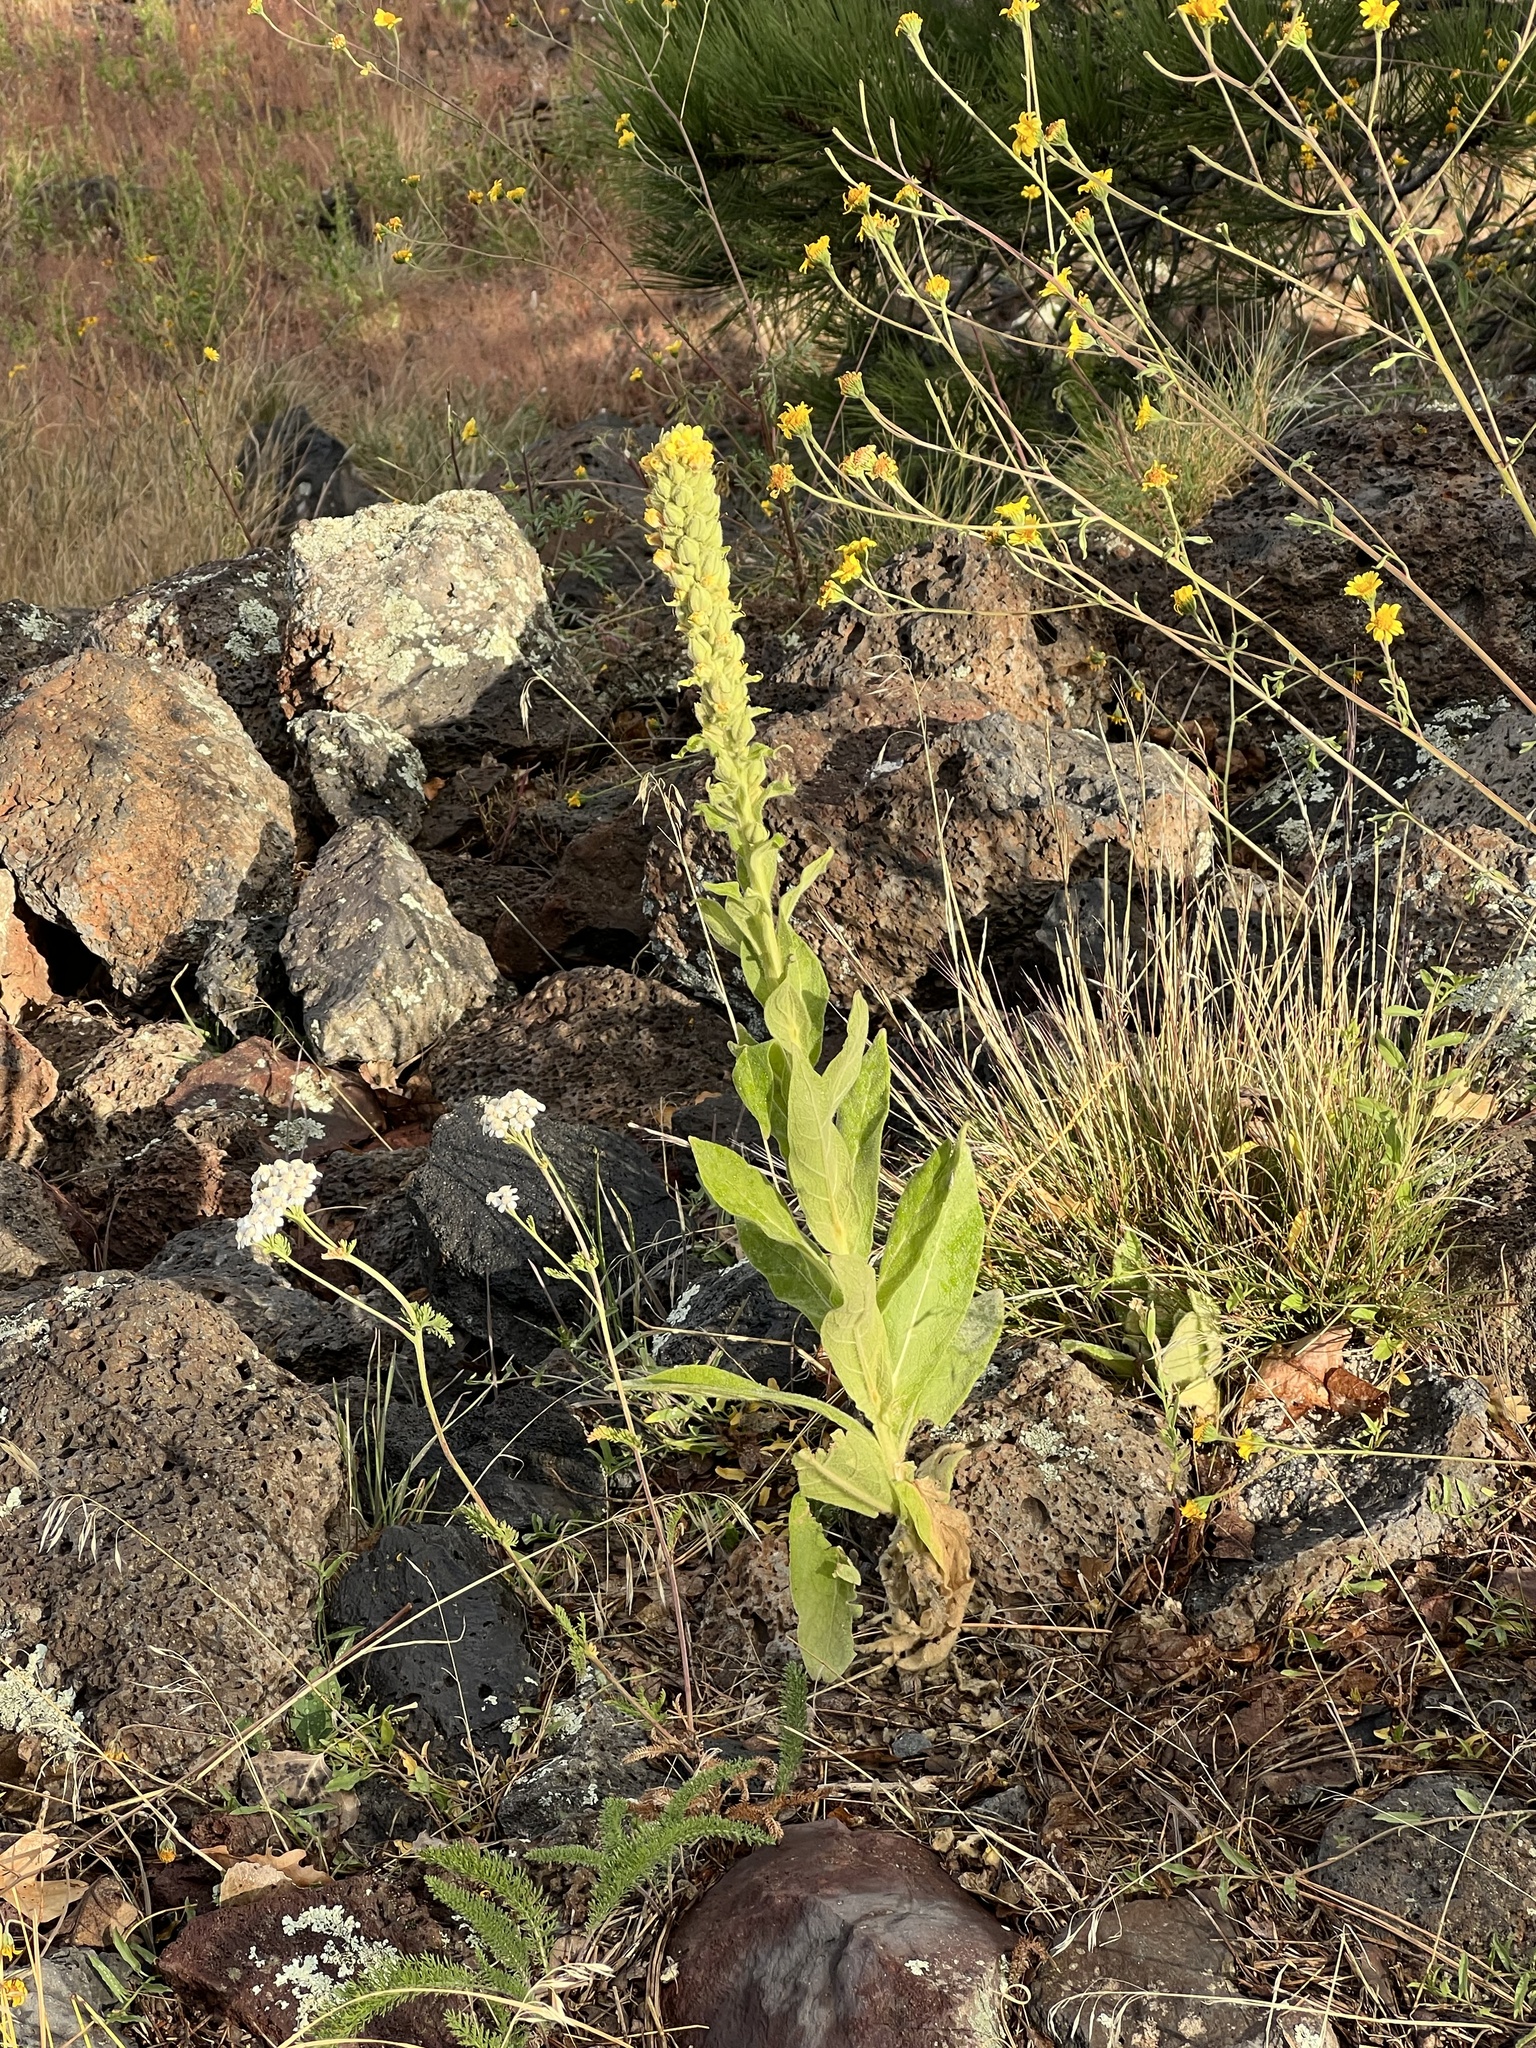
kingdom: Plantae
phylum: Tracheophyta
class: Magnoliopsida
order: Lamiales
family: Scrophulariaceae
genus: Verbascum
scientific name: Verbascum thapsus
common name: Common mullein
